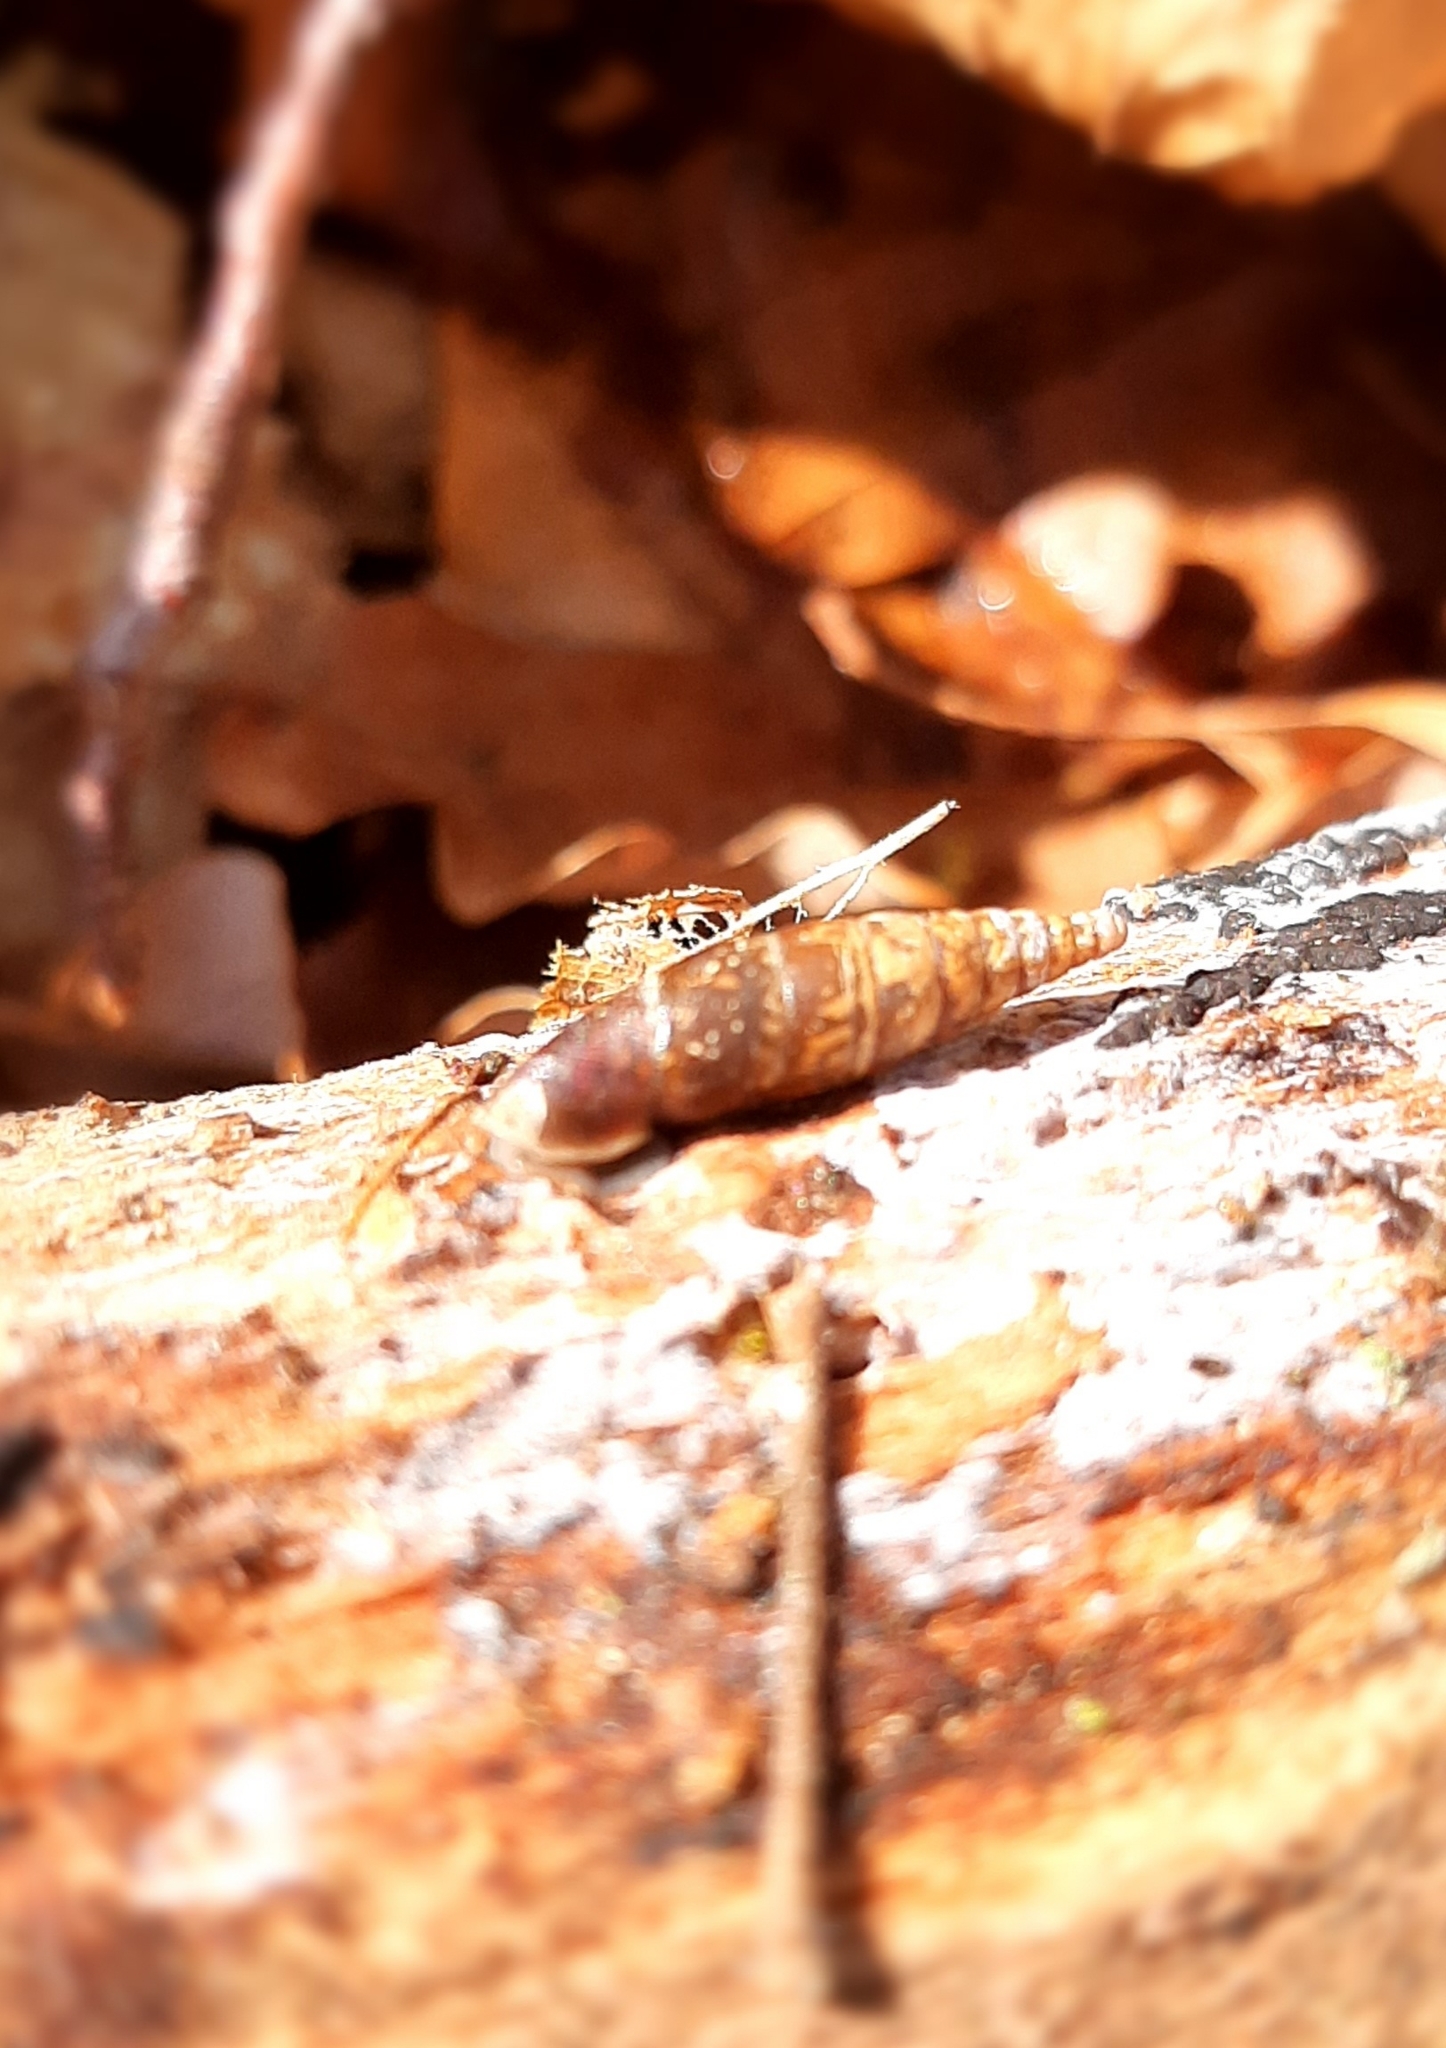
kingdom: Animalia
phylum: Mollusca
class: Gastropoda
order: Stylommatophora
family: Clausiliidae
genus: Cochlodina
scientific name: Cochlodina laminata
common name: Plaited door snail
